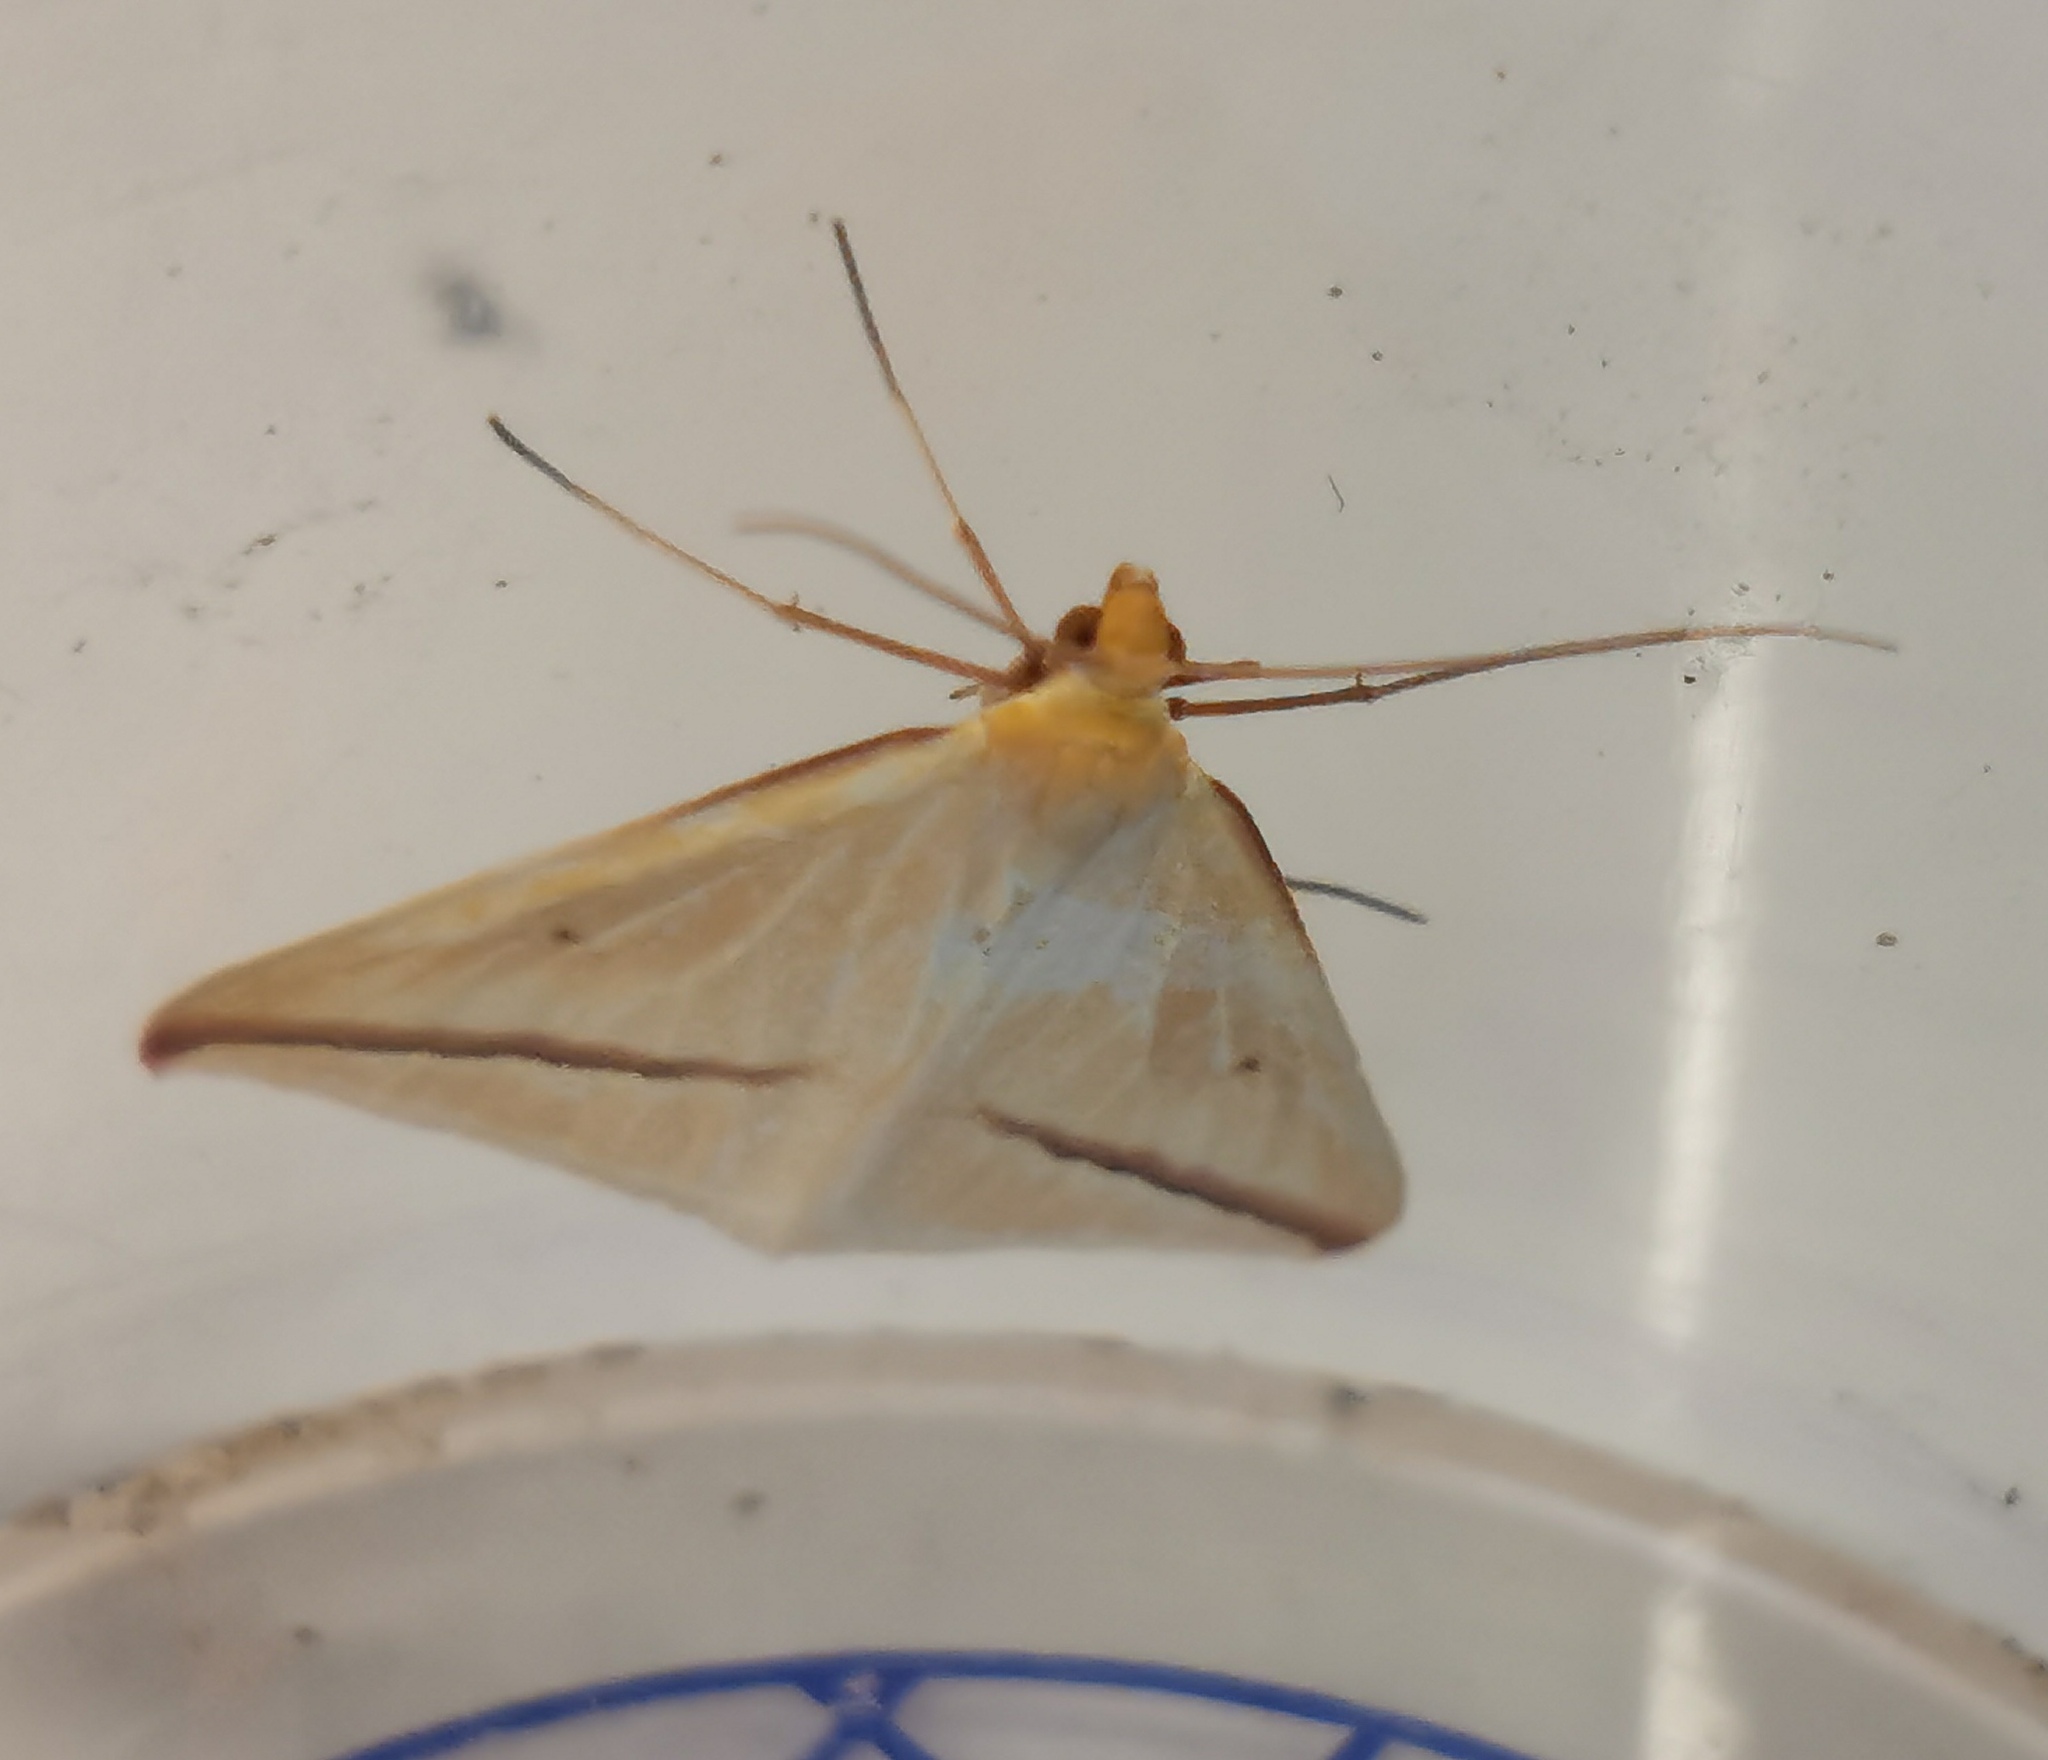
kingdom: Animalia
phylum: Arthropoda
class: Insecta
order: Lepidoptera
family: Geometridae
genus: Rhodometra
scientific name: Rhodometra sacraria
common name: Vestal
